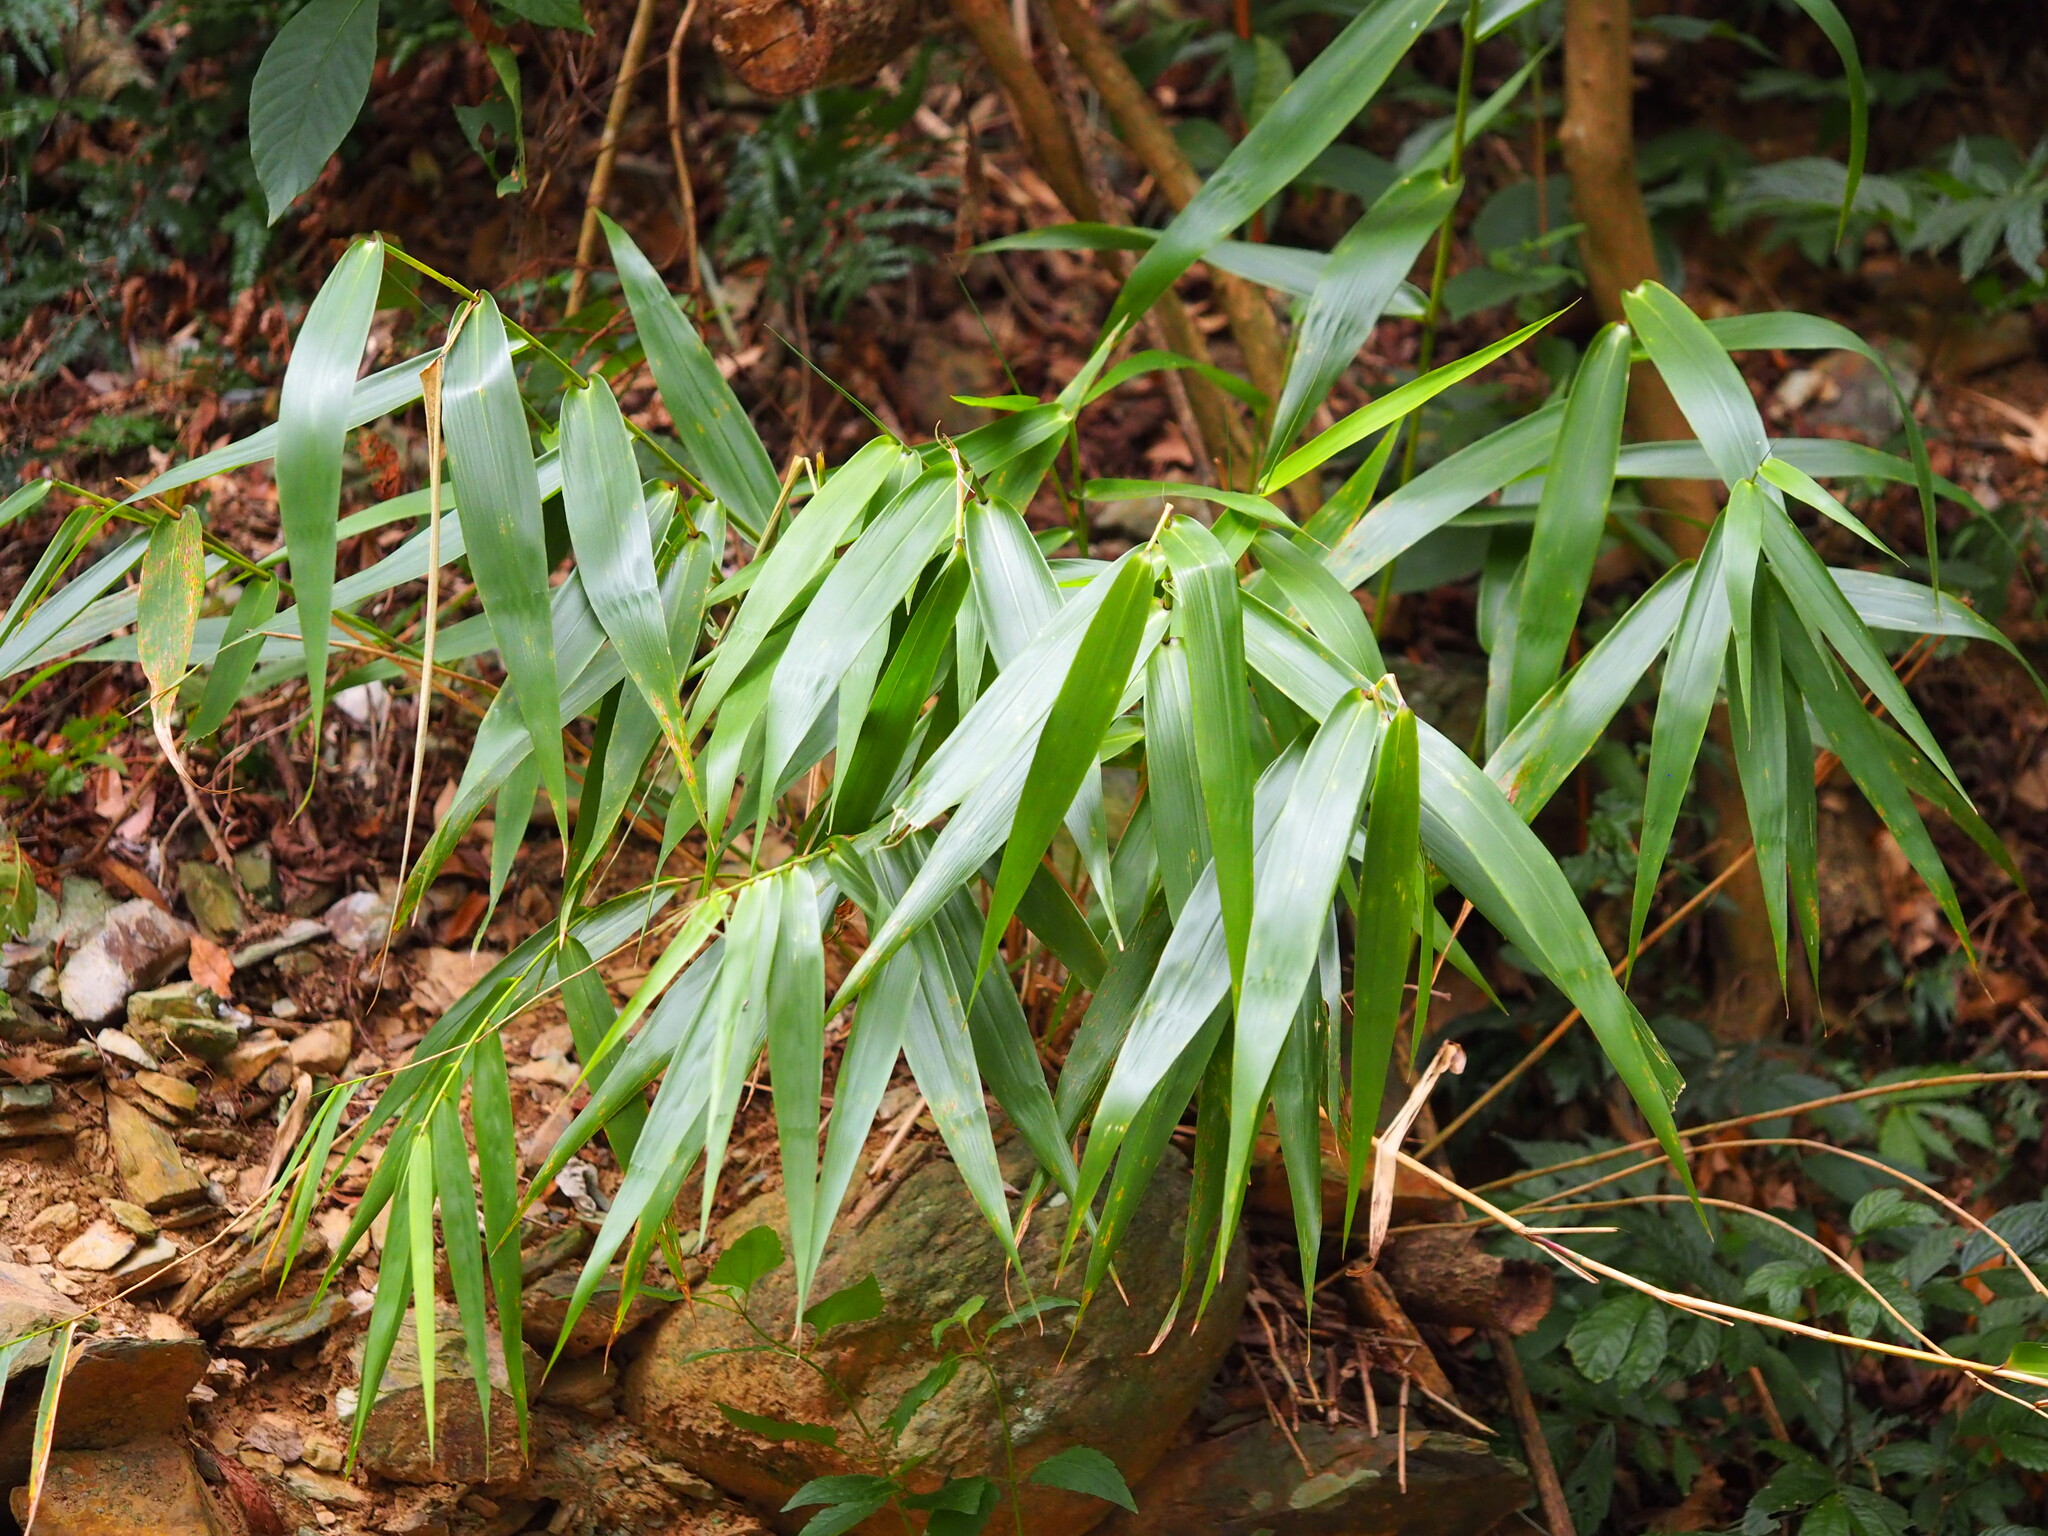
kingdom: Plantae
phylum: Tracheophyta
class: Liliopsida
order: Poales
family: Poaceae
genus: Thysanolaena
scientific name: Thysanolaena latifolia
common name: Tiger grass
